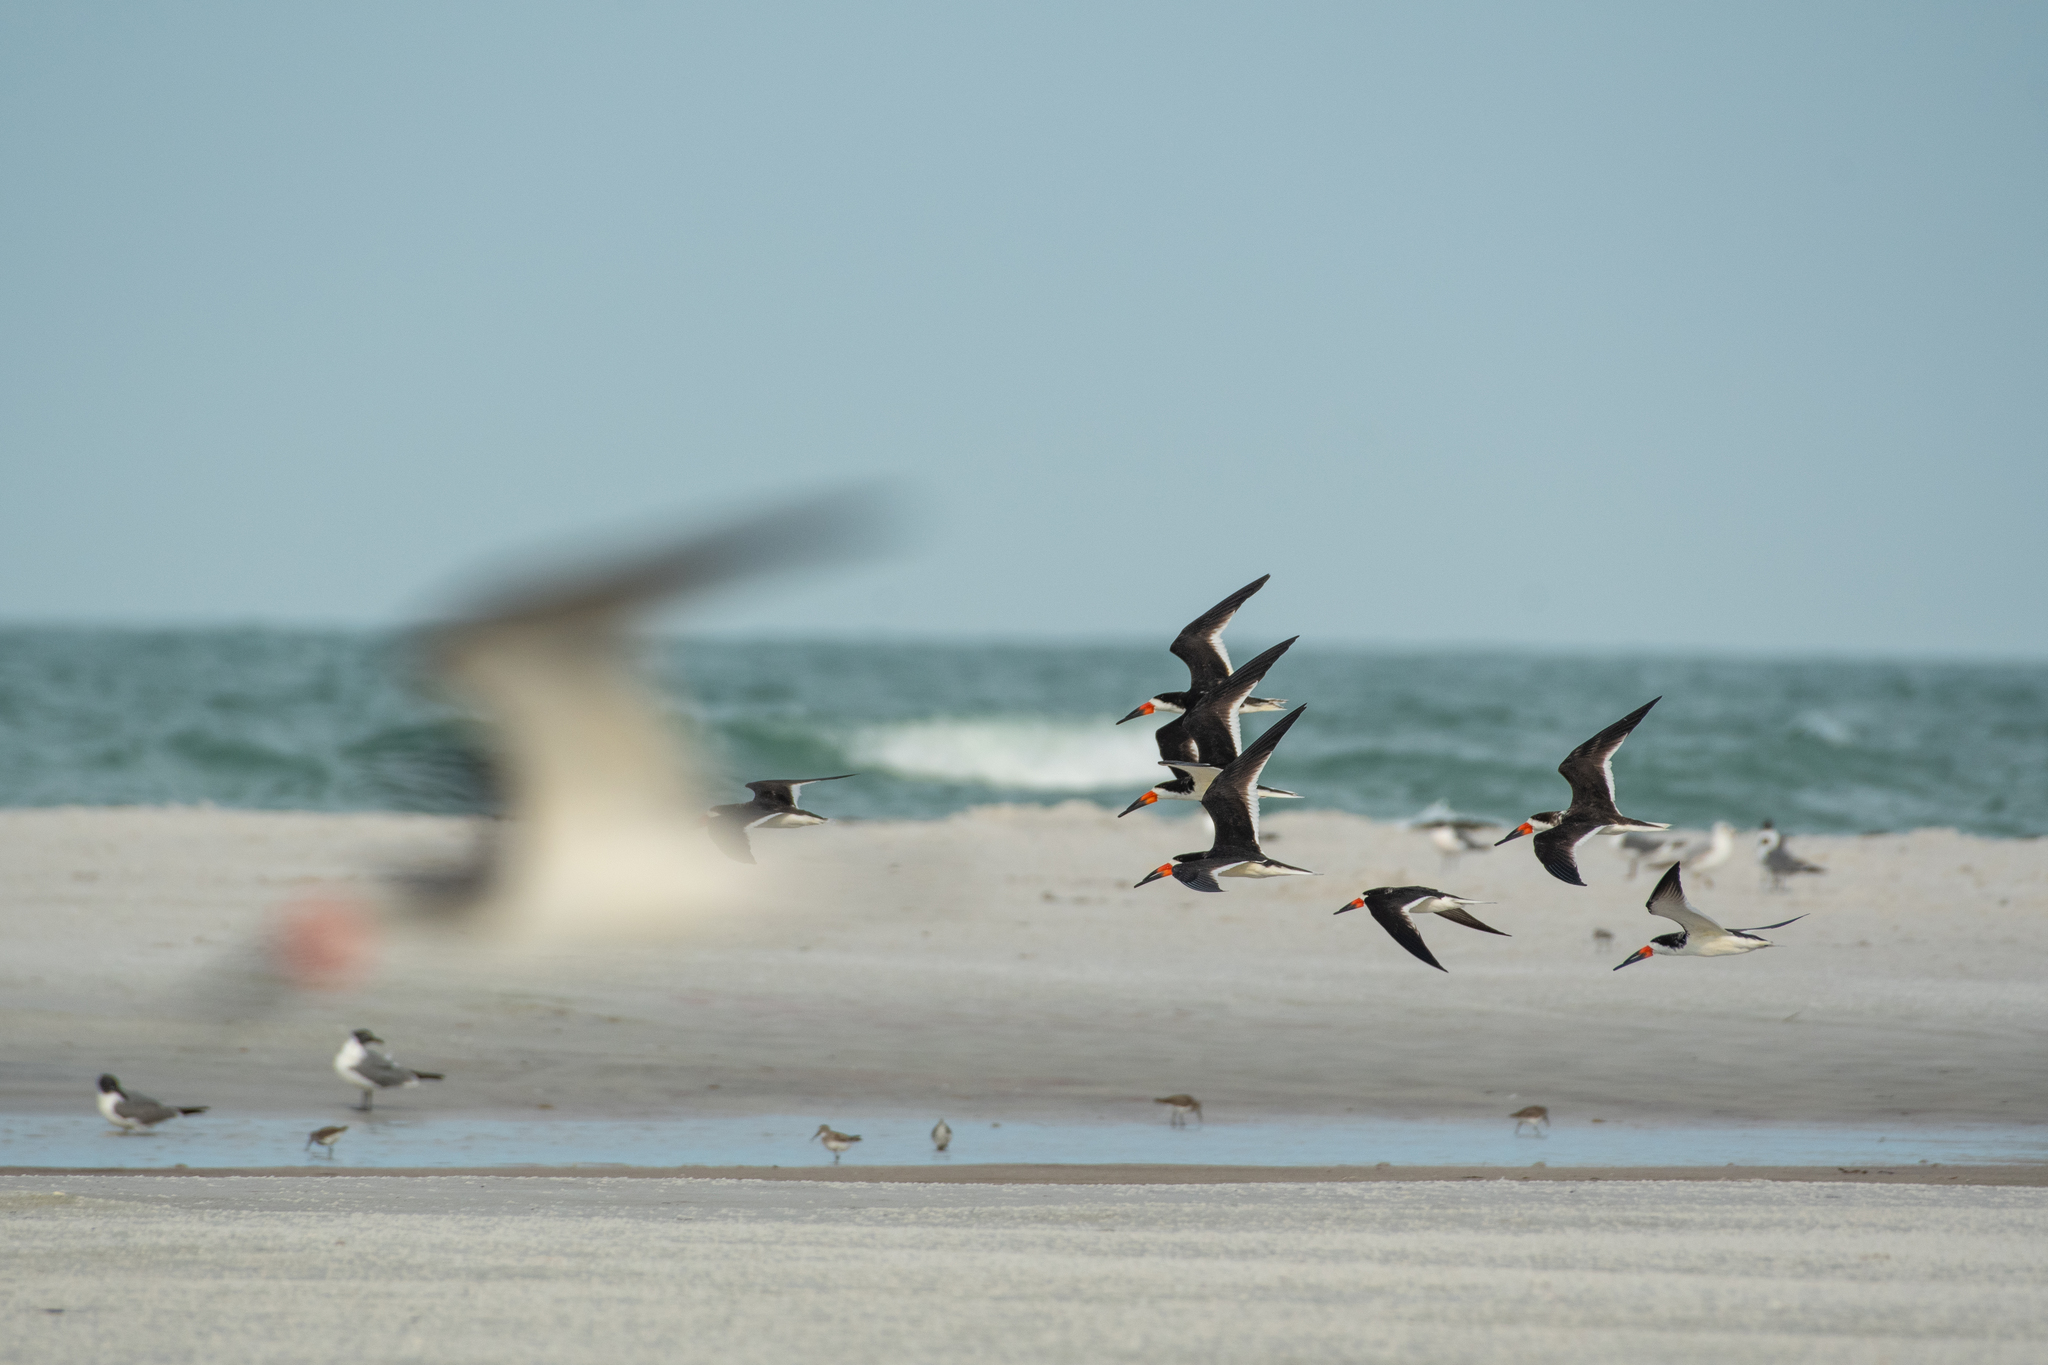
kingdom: Animalia
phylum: Chordata
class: Aves
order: Charadriiformes
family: Laridae
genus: Rynchops
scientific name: Rynchops niger
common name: Black skimmer
